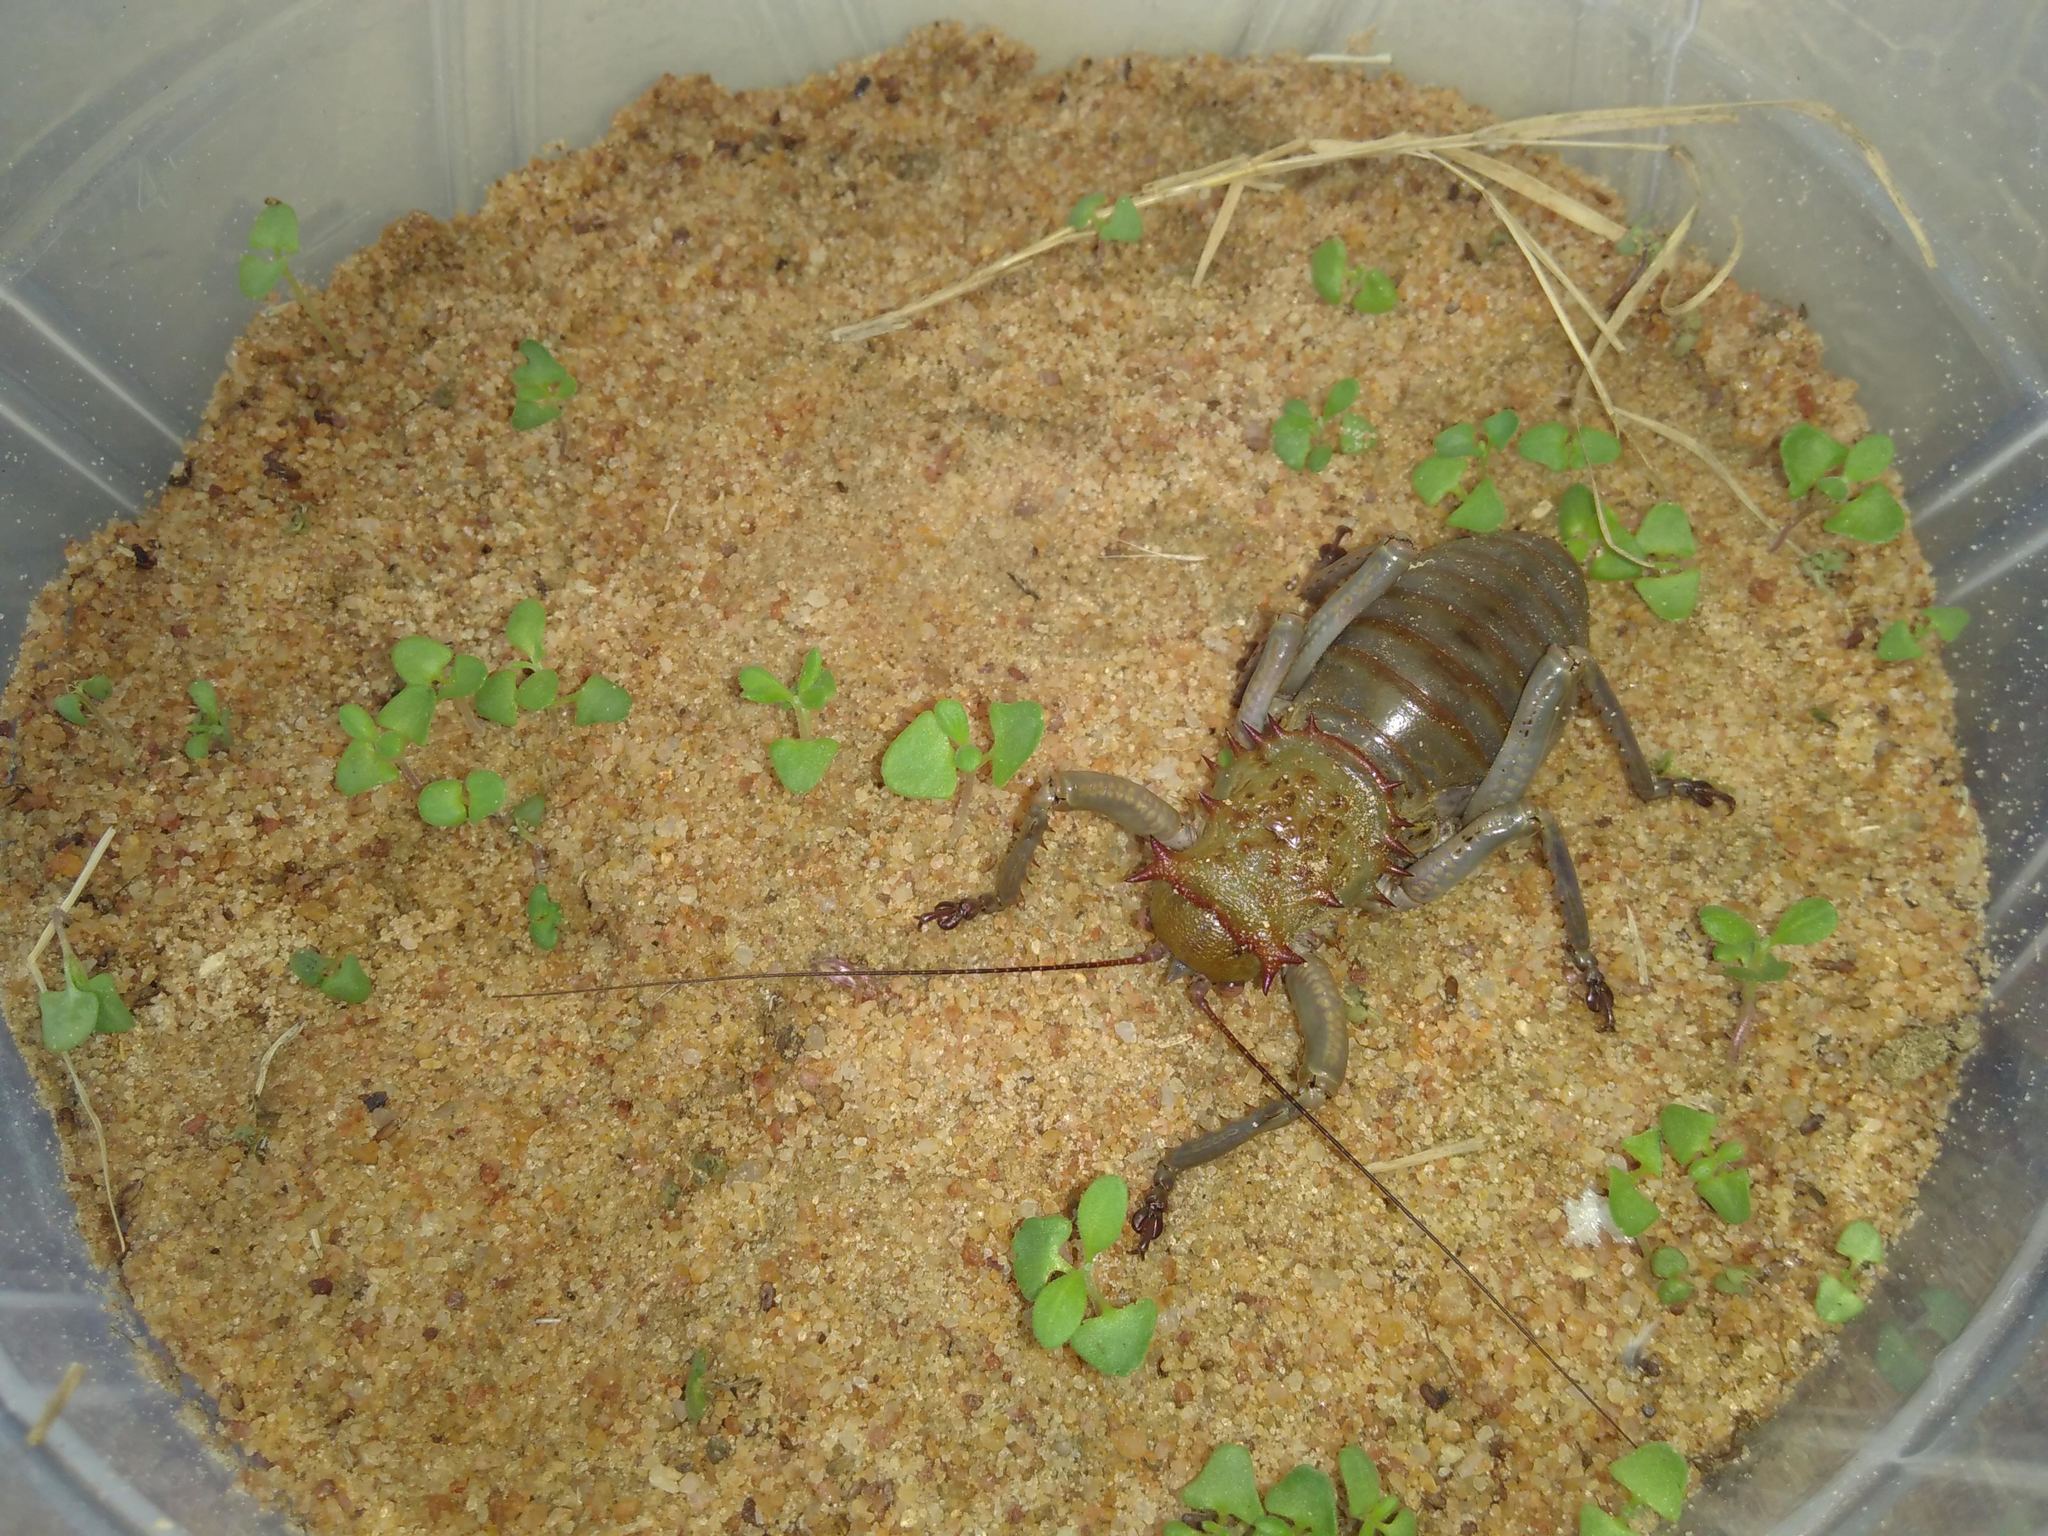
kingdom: Animalia
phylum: Arthropoda
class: Insecta
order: Orthoptera
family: Tettigoniidae
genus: Spalacomimus
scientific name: Spalacomimus magnus
